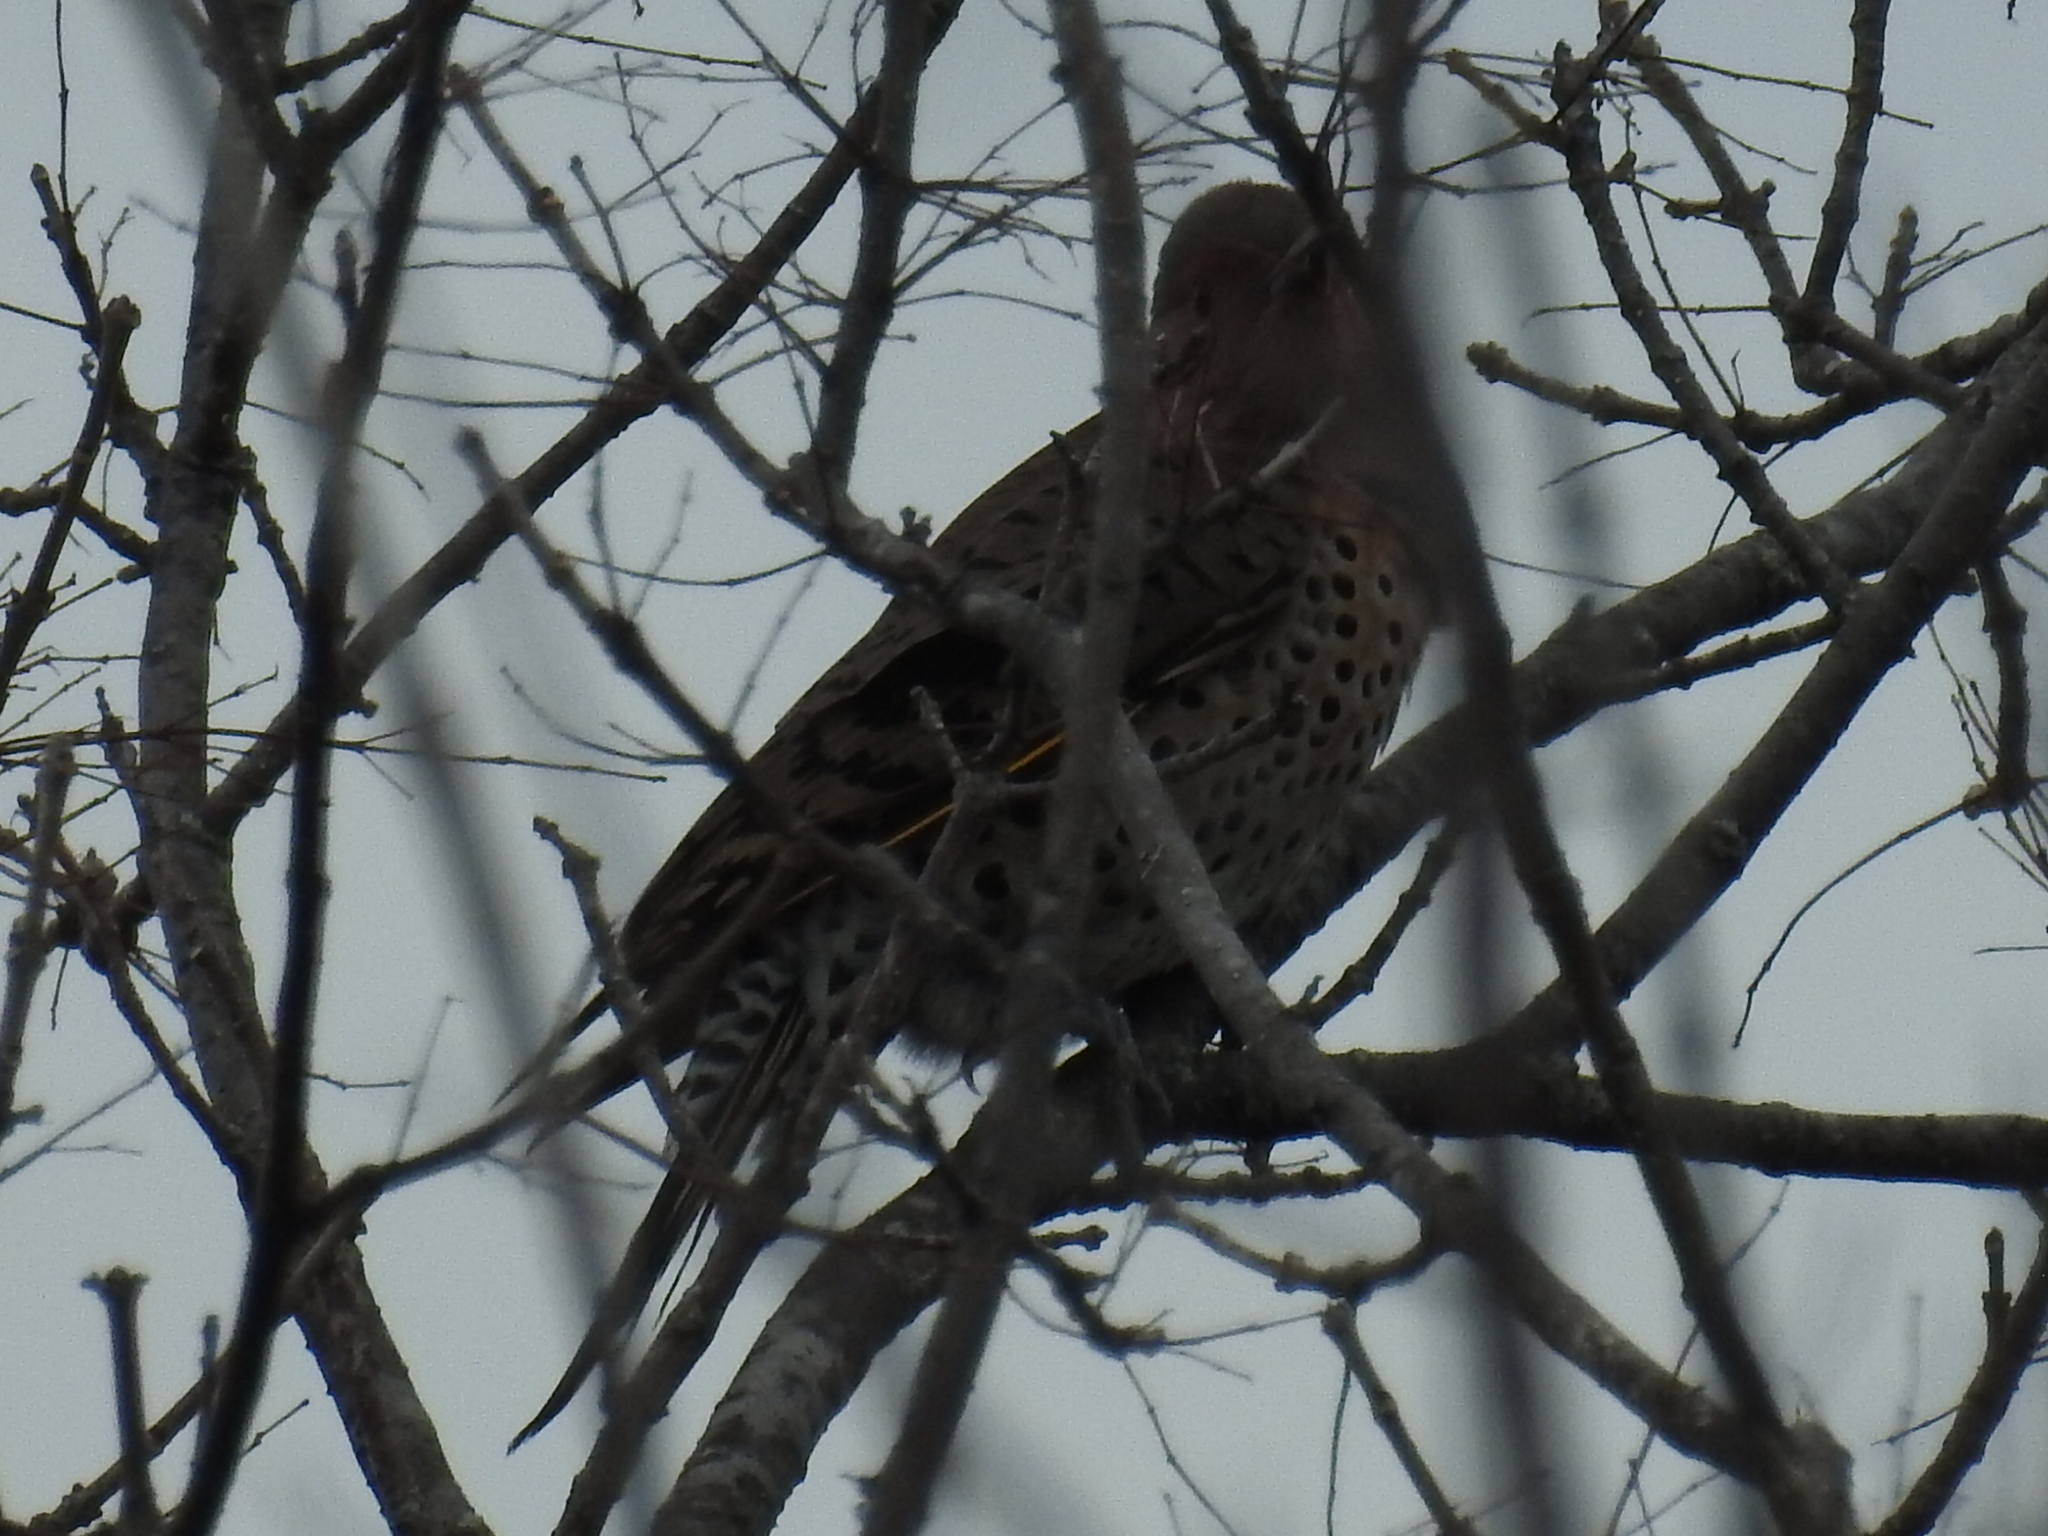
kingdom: Animalia
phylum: Chordata
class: Aves
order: Piciformes
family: Picidae
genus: Colaptes
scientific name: Colaptes auratus
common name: Northern flicker
